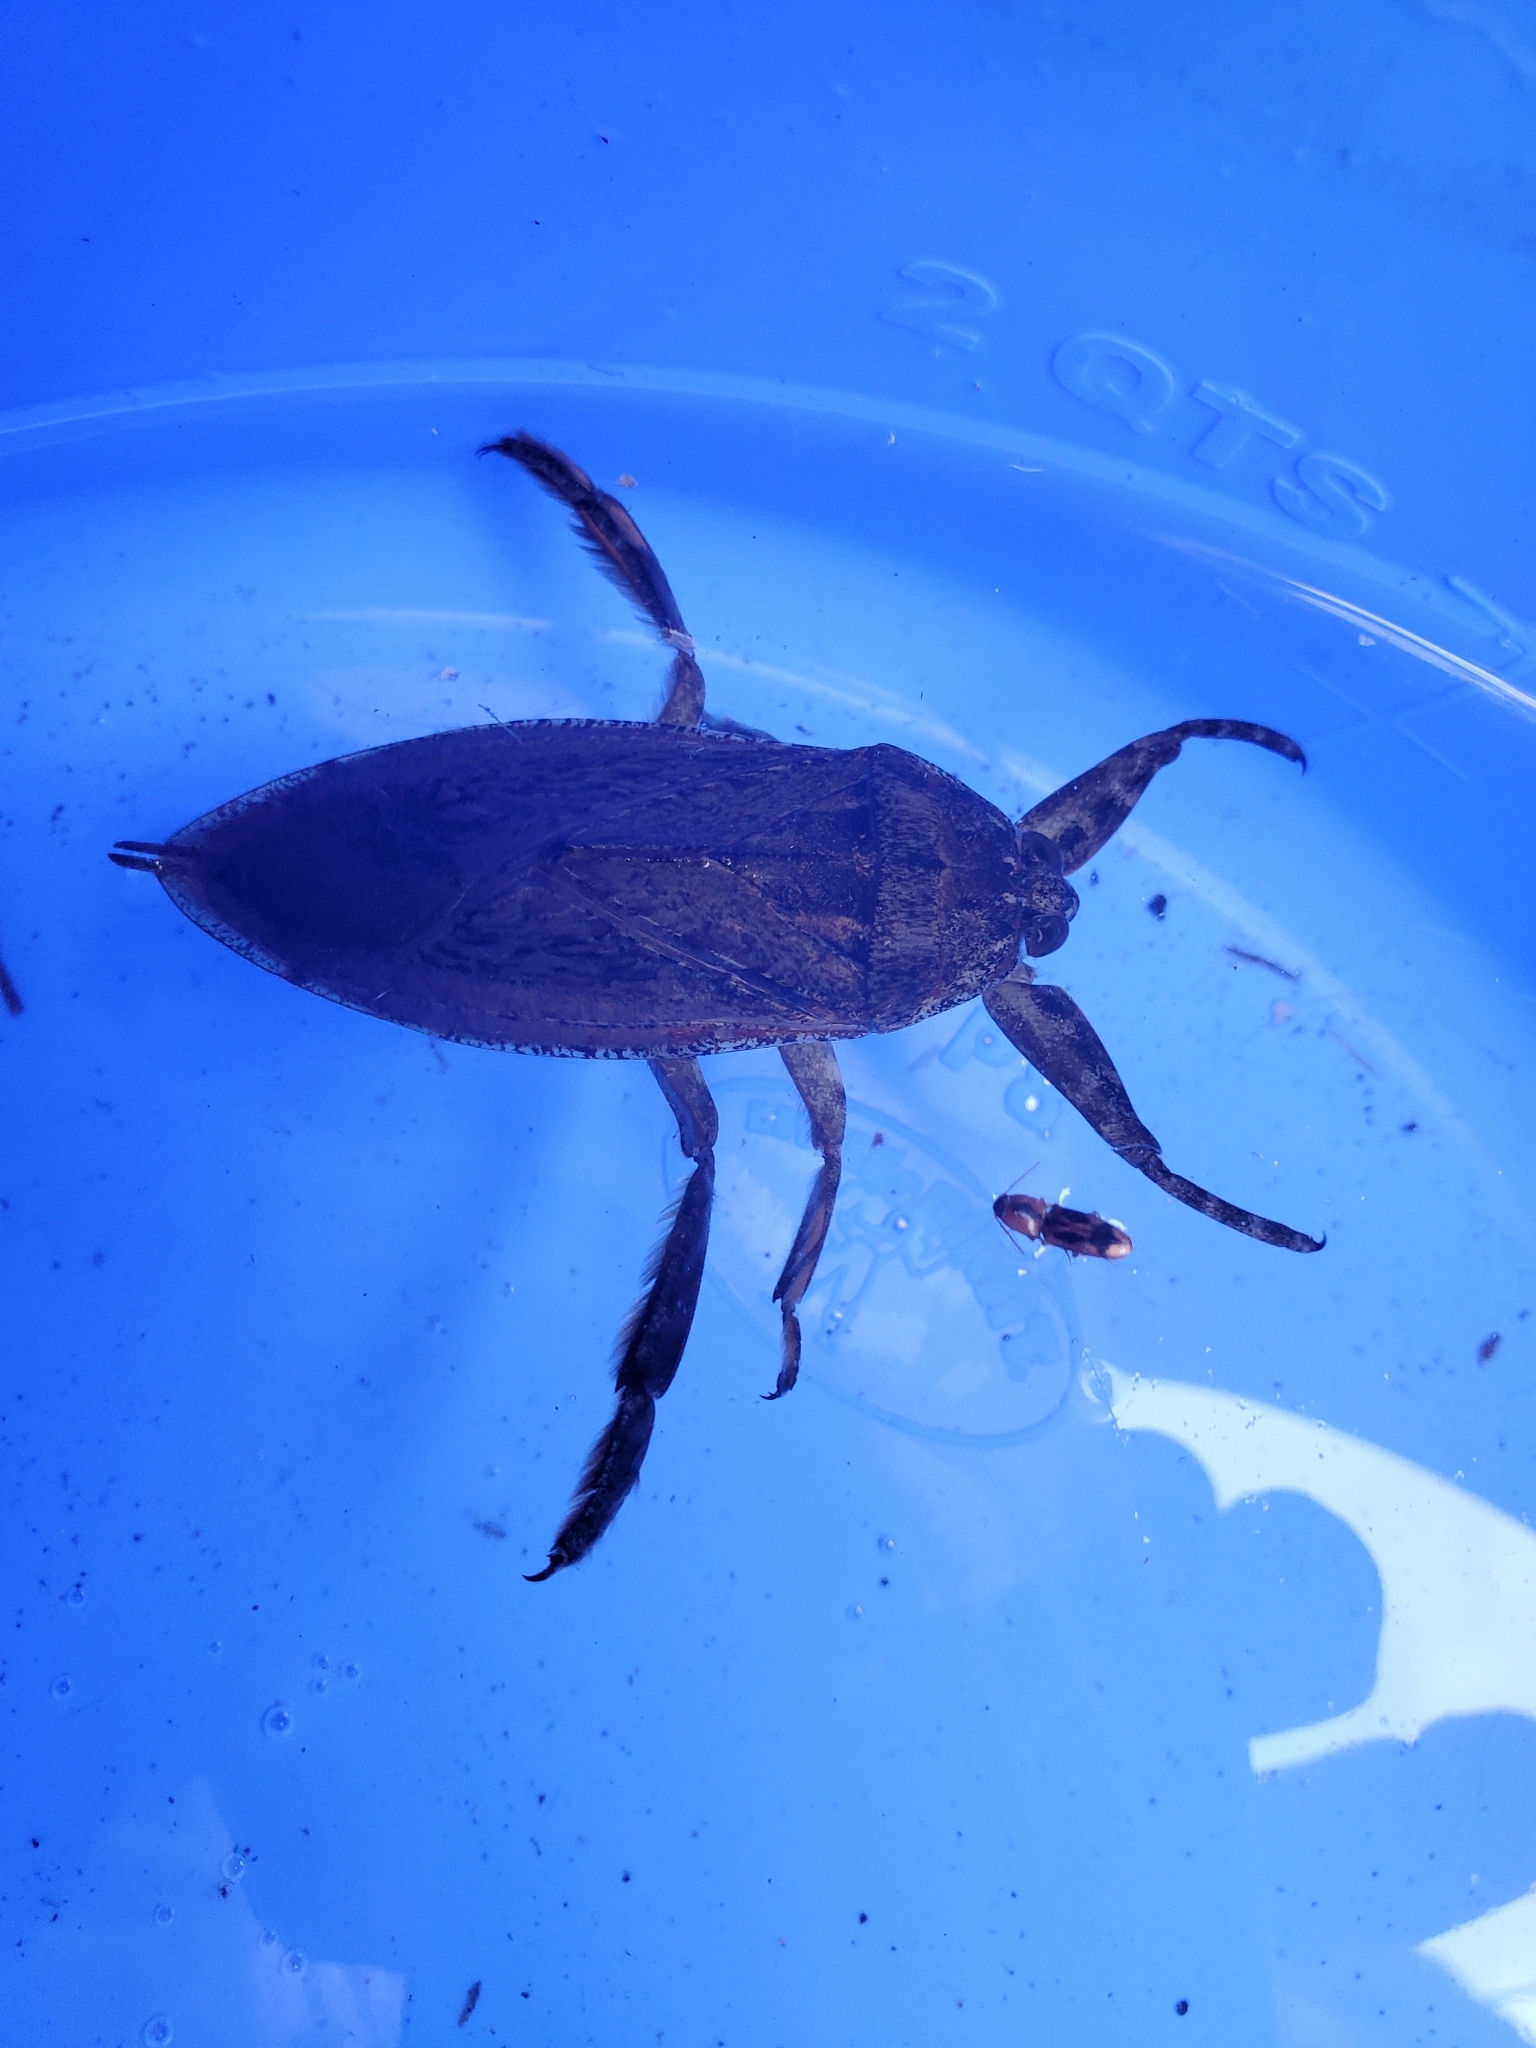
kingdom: Animalia
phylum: Arthropoda
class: Insecta
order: Hemiptera
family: Belostomatidae
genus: Lethocerus
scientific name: Lethocerus americanus
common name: Giant water bug
